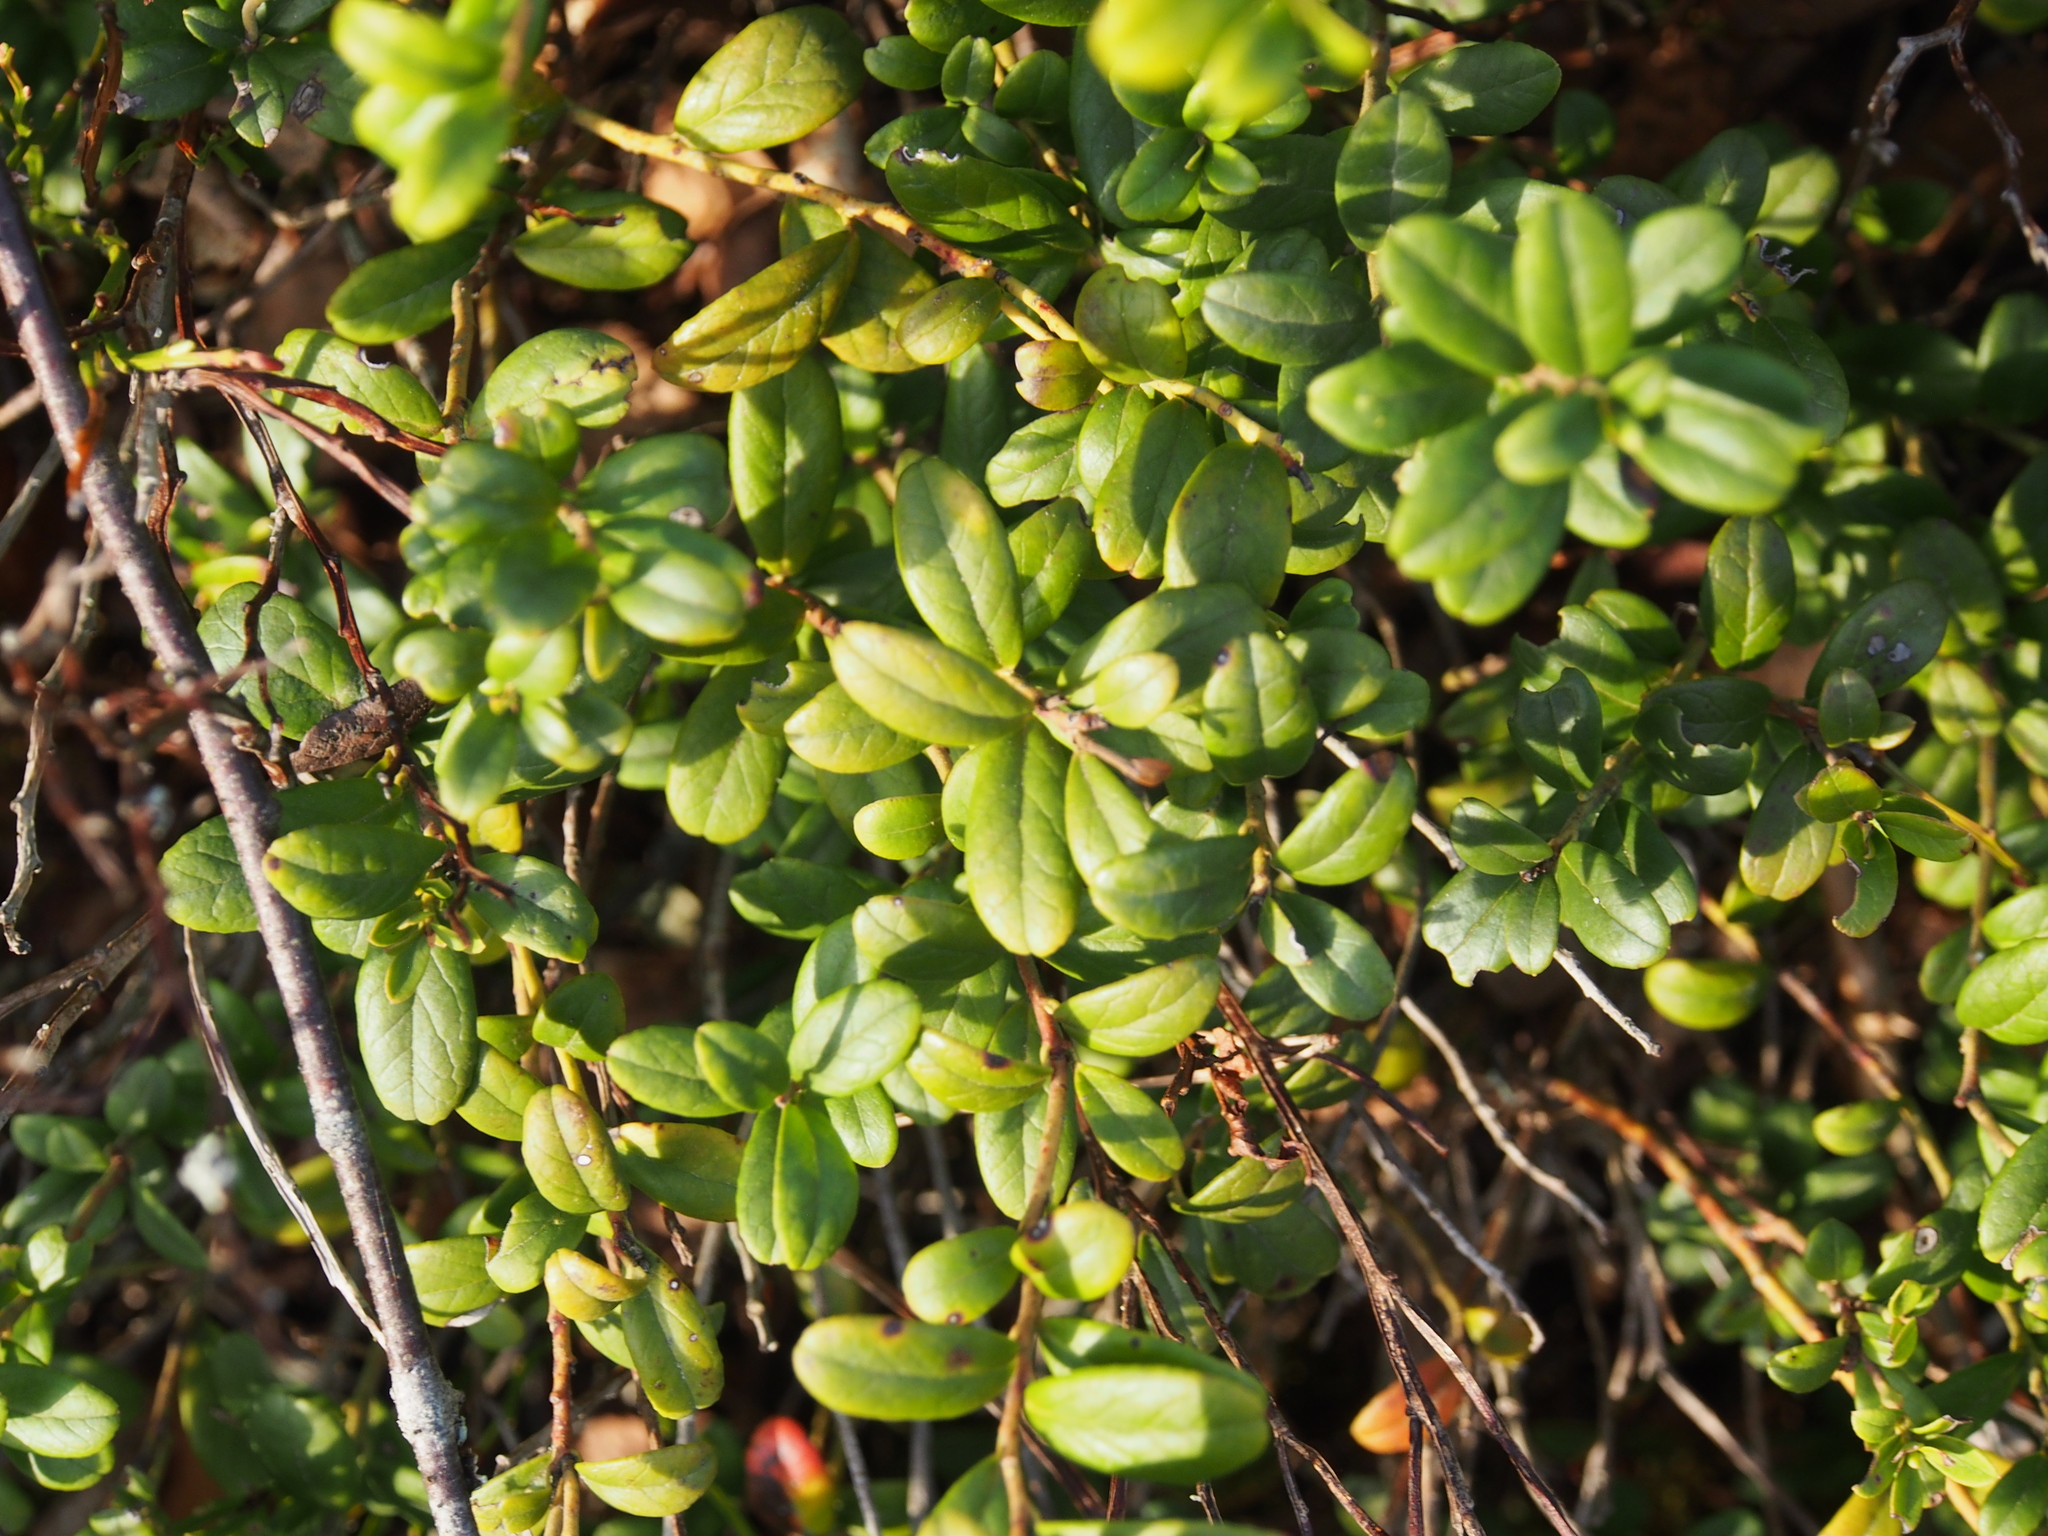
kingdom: Plantae
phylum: Tracheophyta
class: Magnoliopsida
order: Ericales
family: Ericaceae
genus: Vaccinium
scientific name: Vaccinium vitis-idaea
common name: Cowberry
